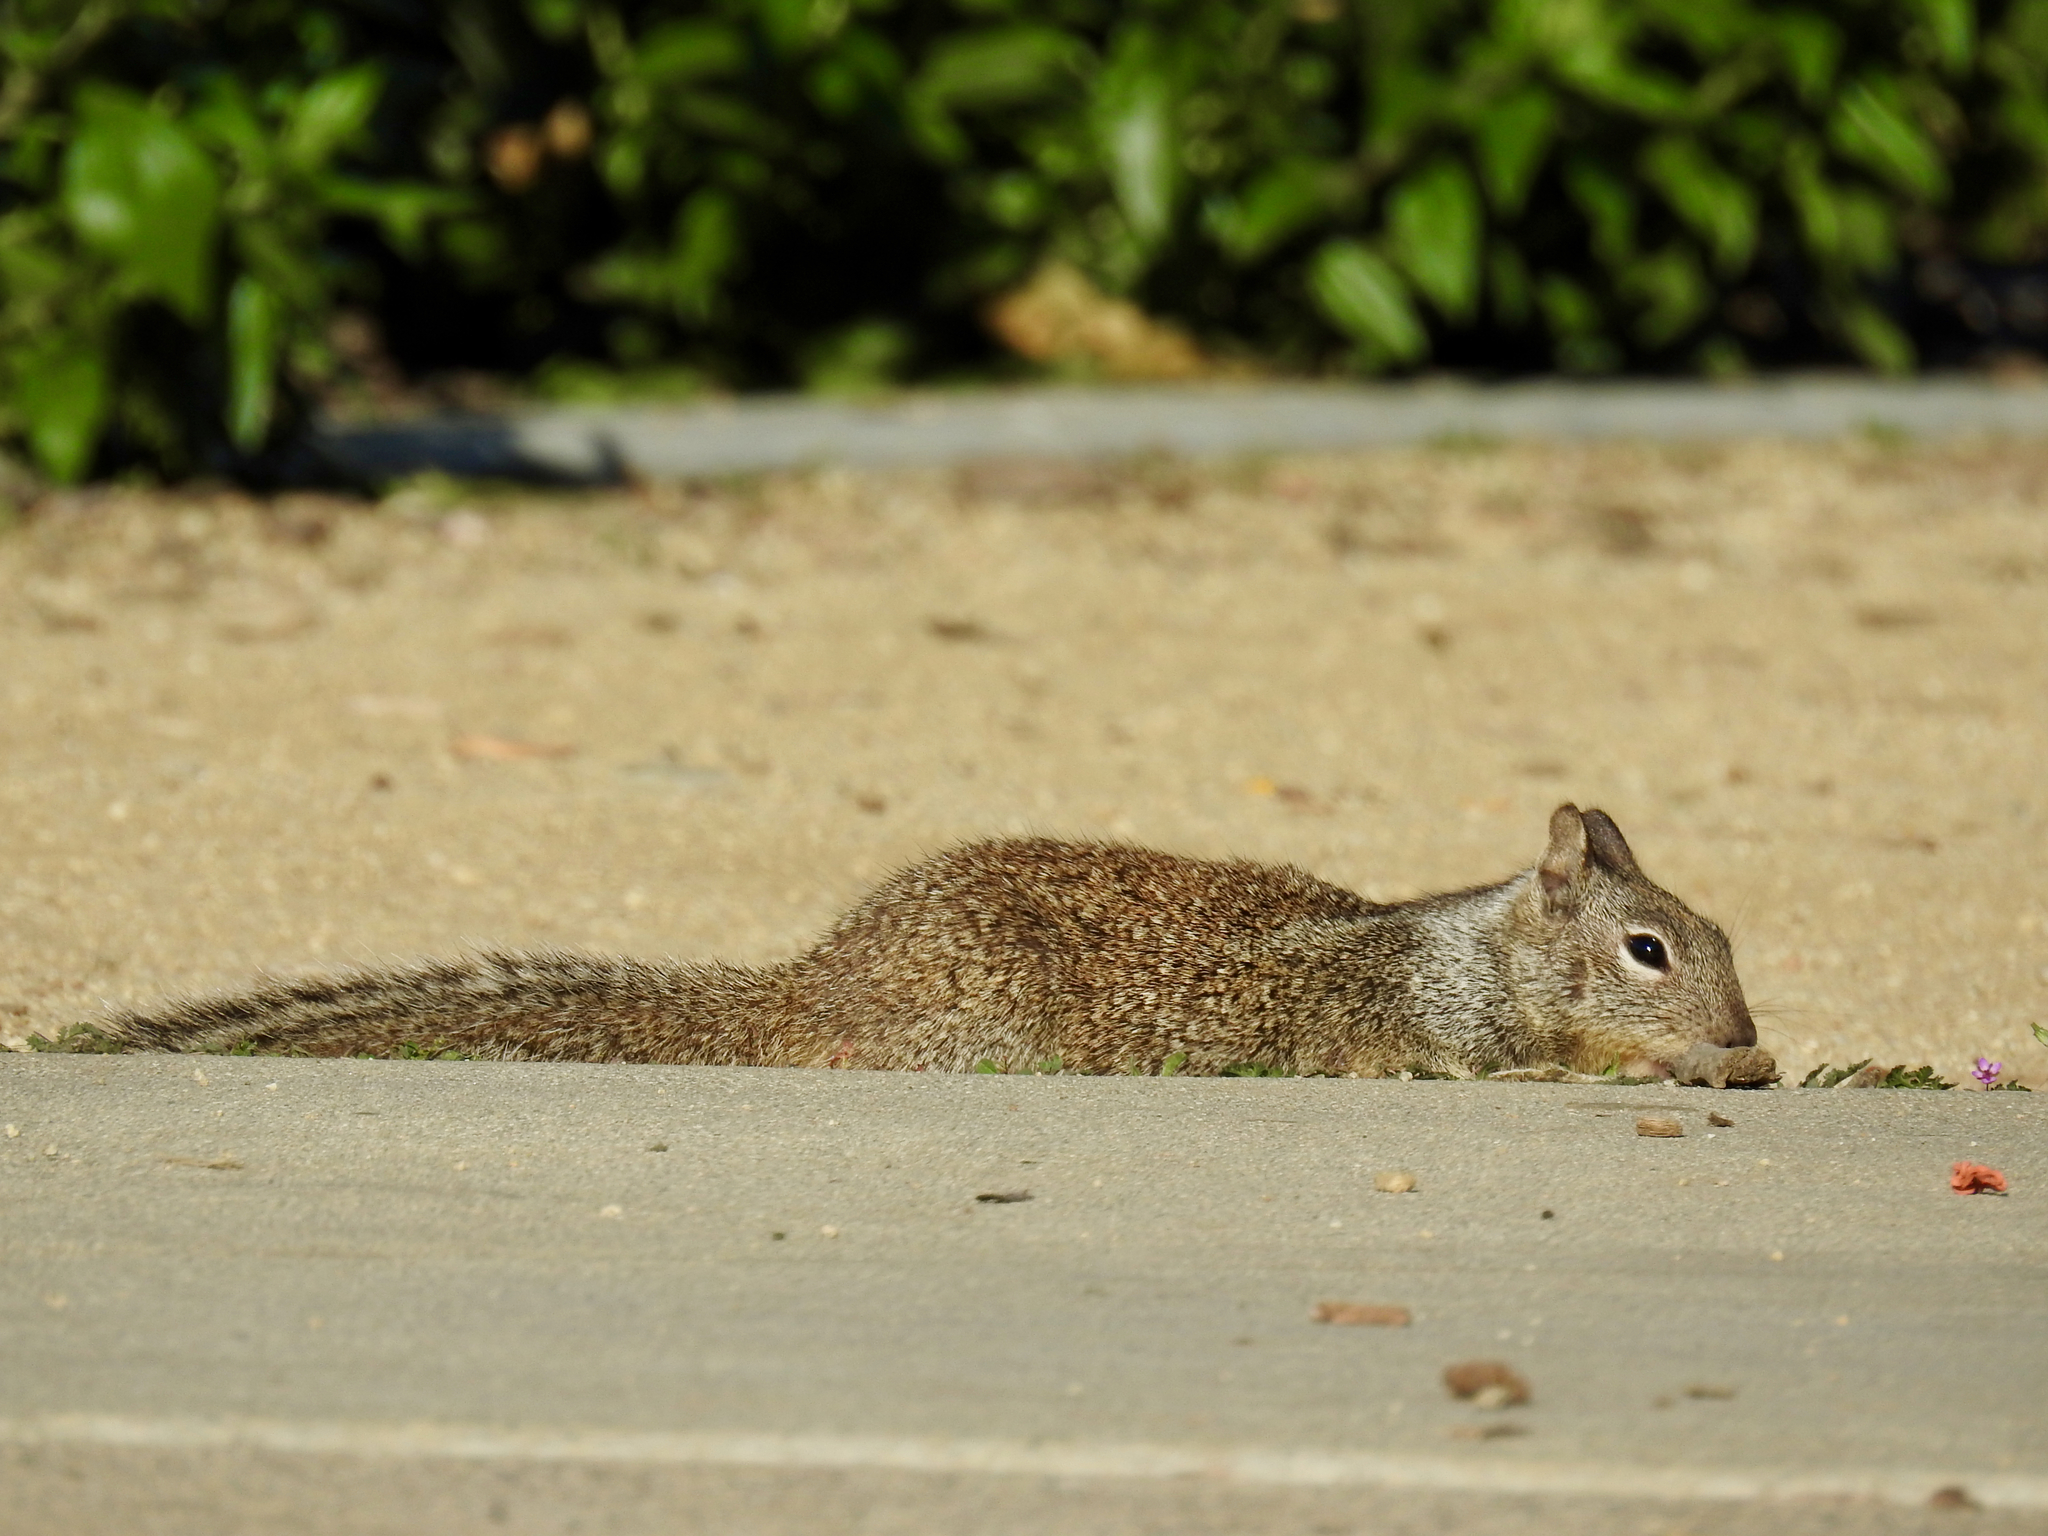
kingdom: Animalia
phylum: Chordata
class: Mammalia
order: Rodentia
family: Sciuridae
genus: Otospermophilus
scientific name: Otospermophilus beecheyi
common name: California ground squirrel
